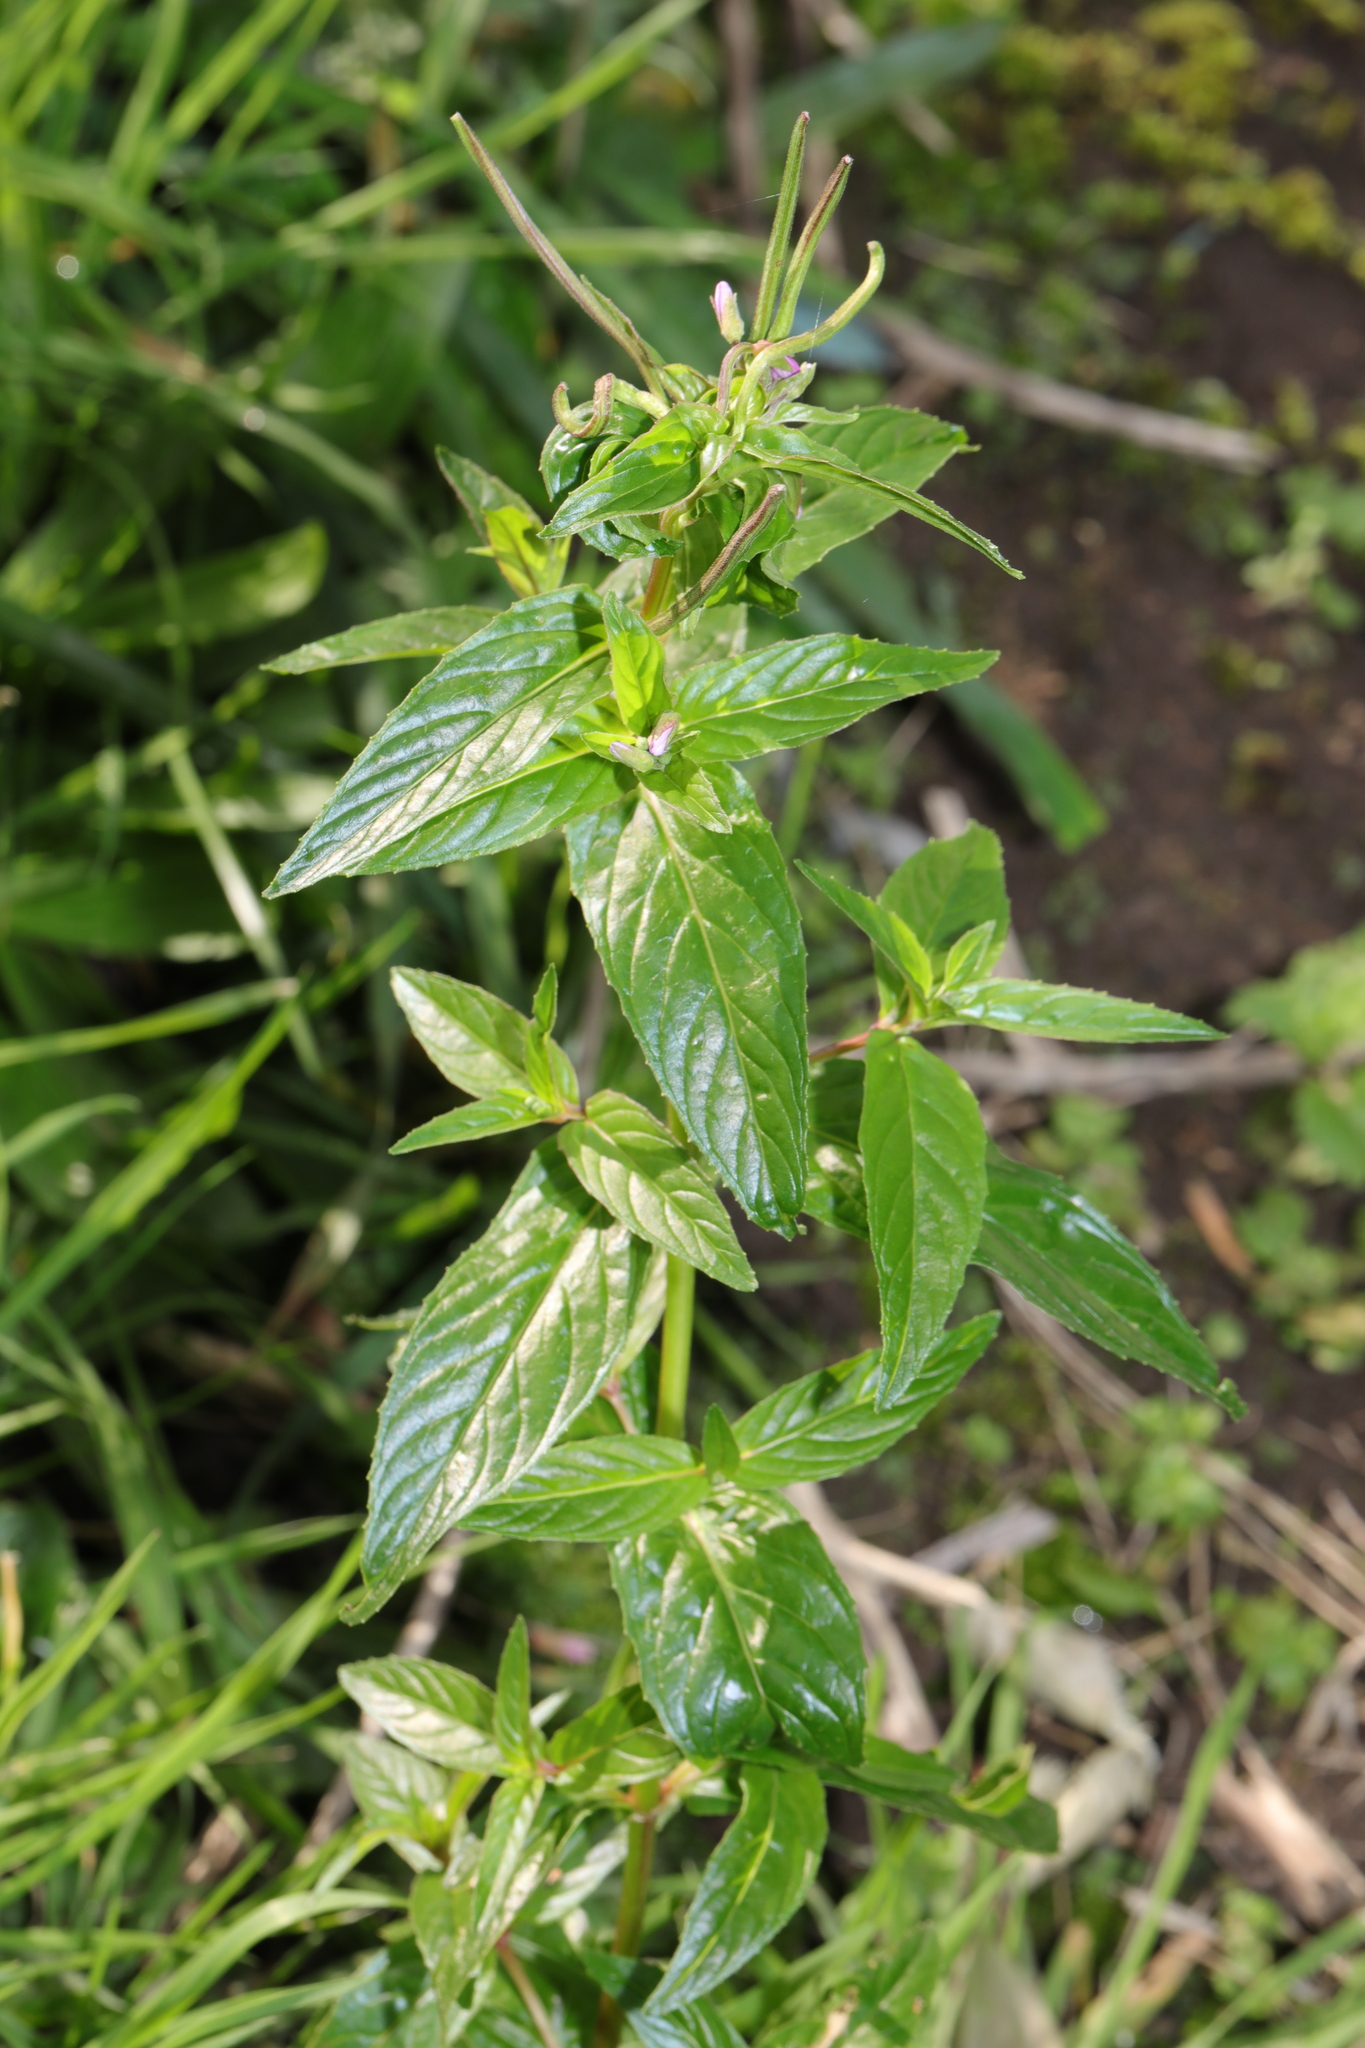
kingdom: Plantae
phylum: Tracheophyta
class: Magnoliopsida
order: Myrtales
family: Onagraceae
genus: Epilobium
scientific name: Epilobium ciliatum
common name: American willowherb
